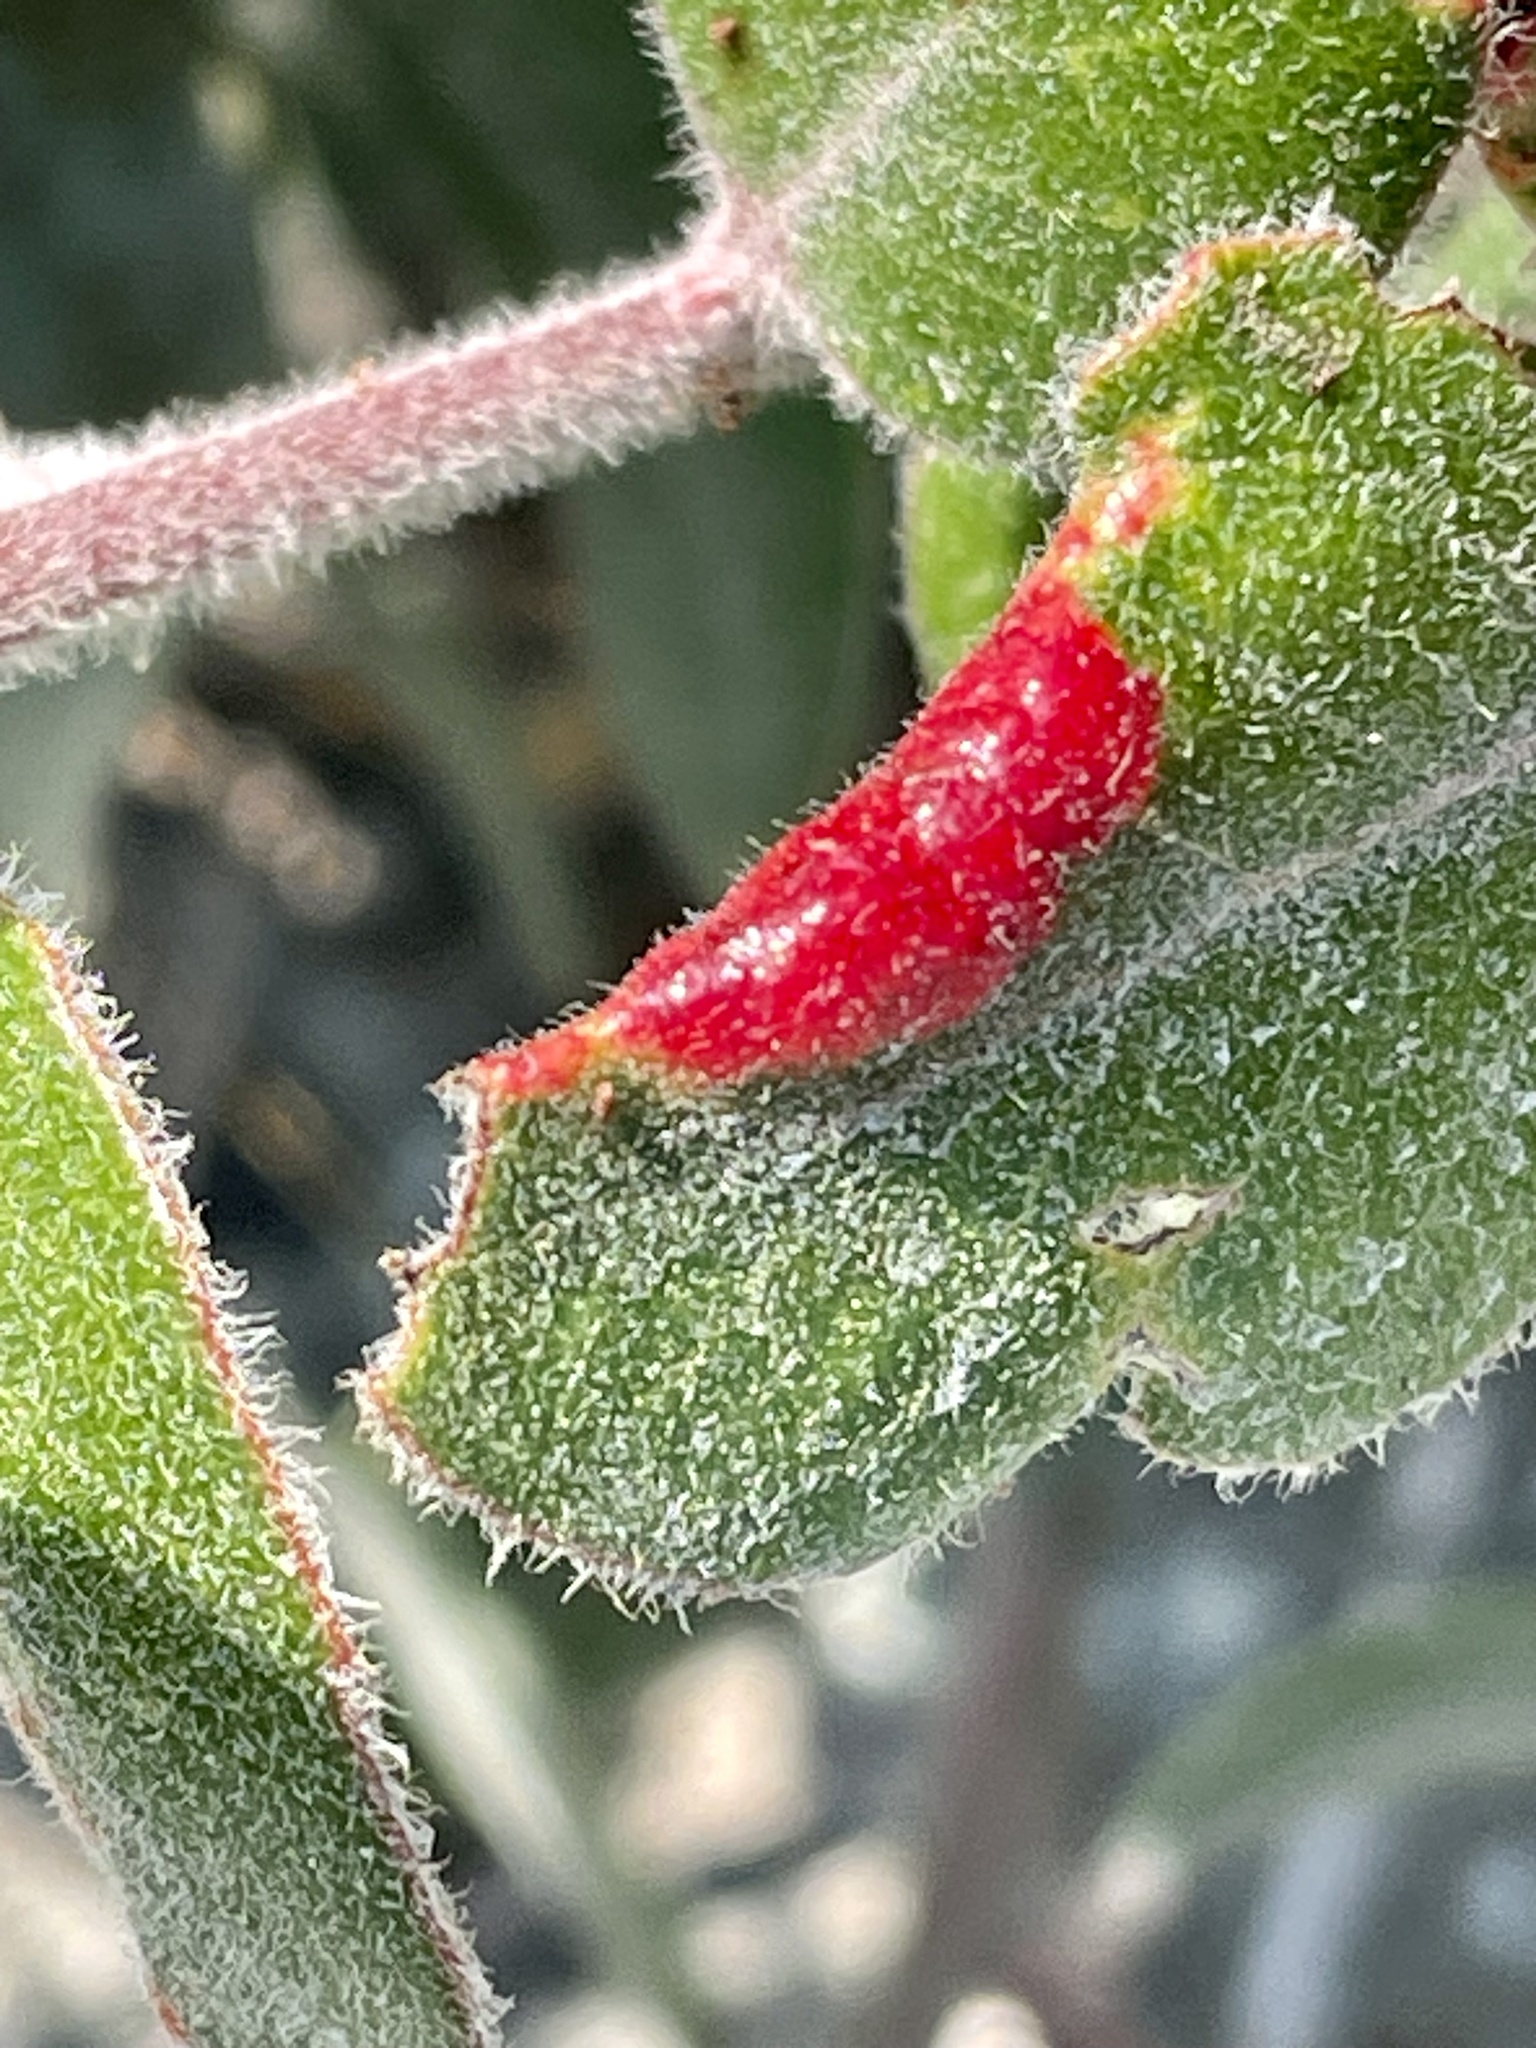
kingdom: Animalia
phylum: Arthropoda
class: Insecta
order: Hemiptera
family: Aphididae
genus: Tamalia
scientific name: Tamalia coweni
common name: Manzanita leafgall aphid
